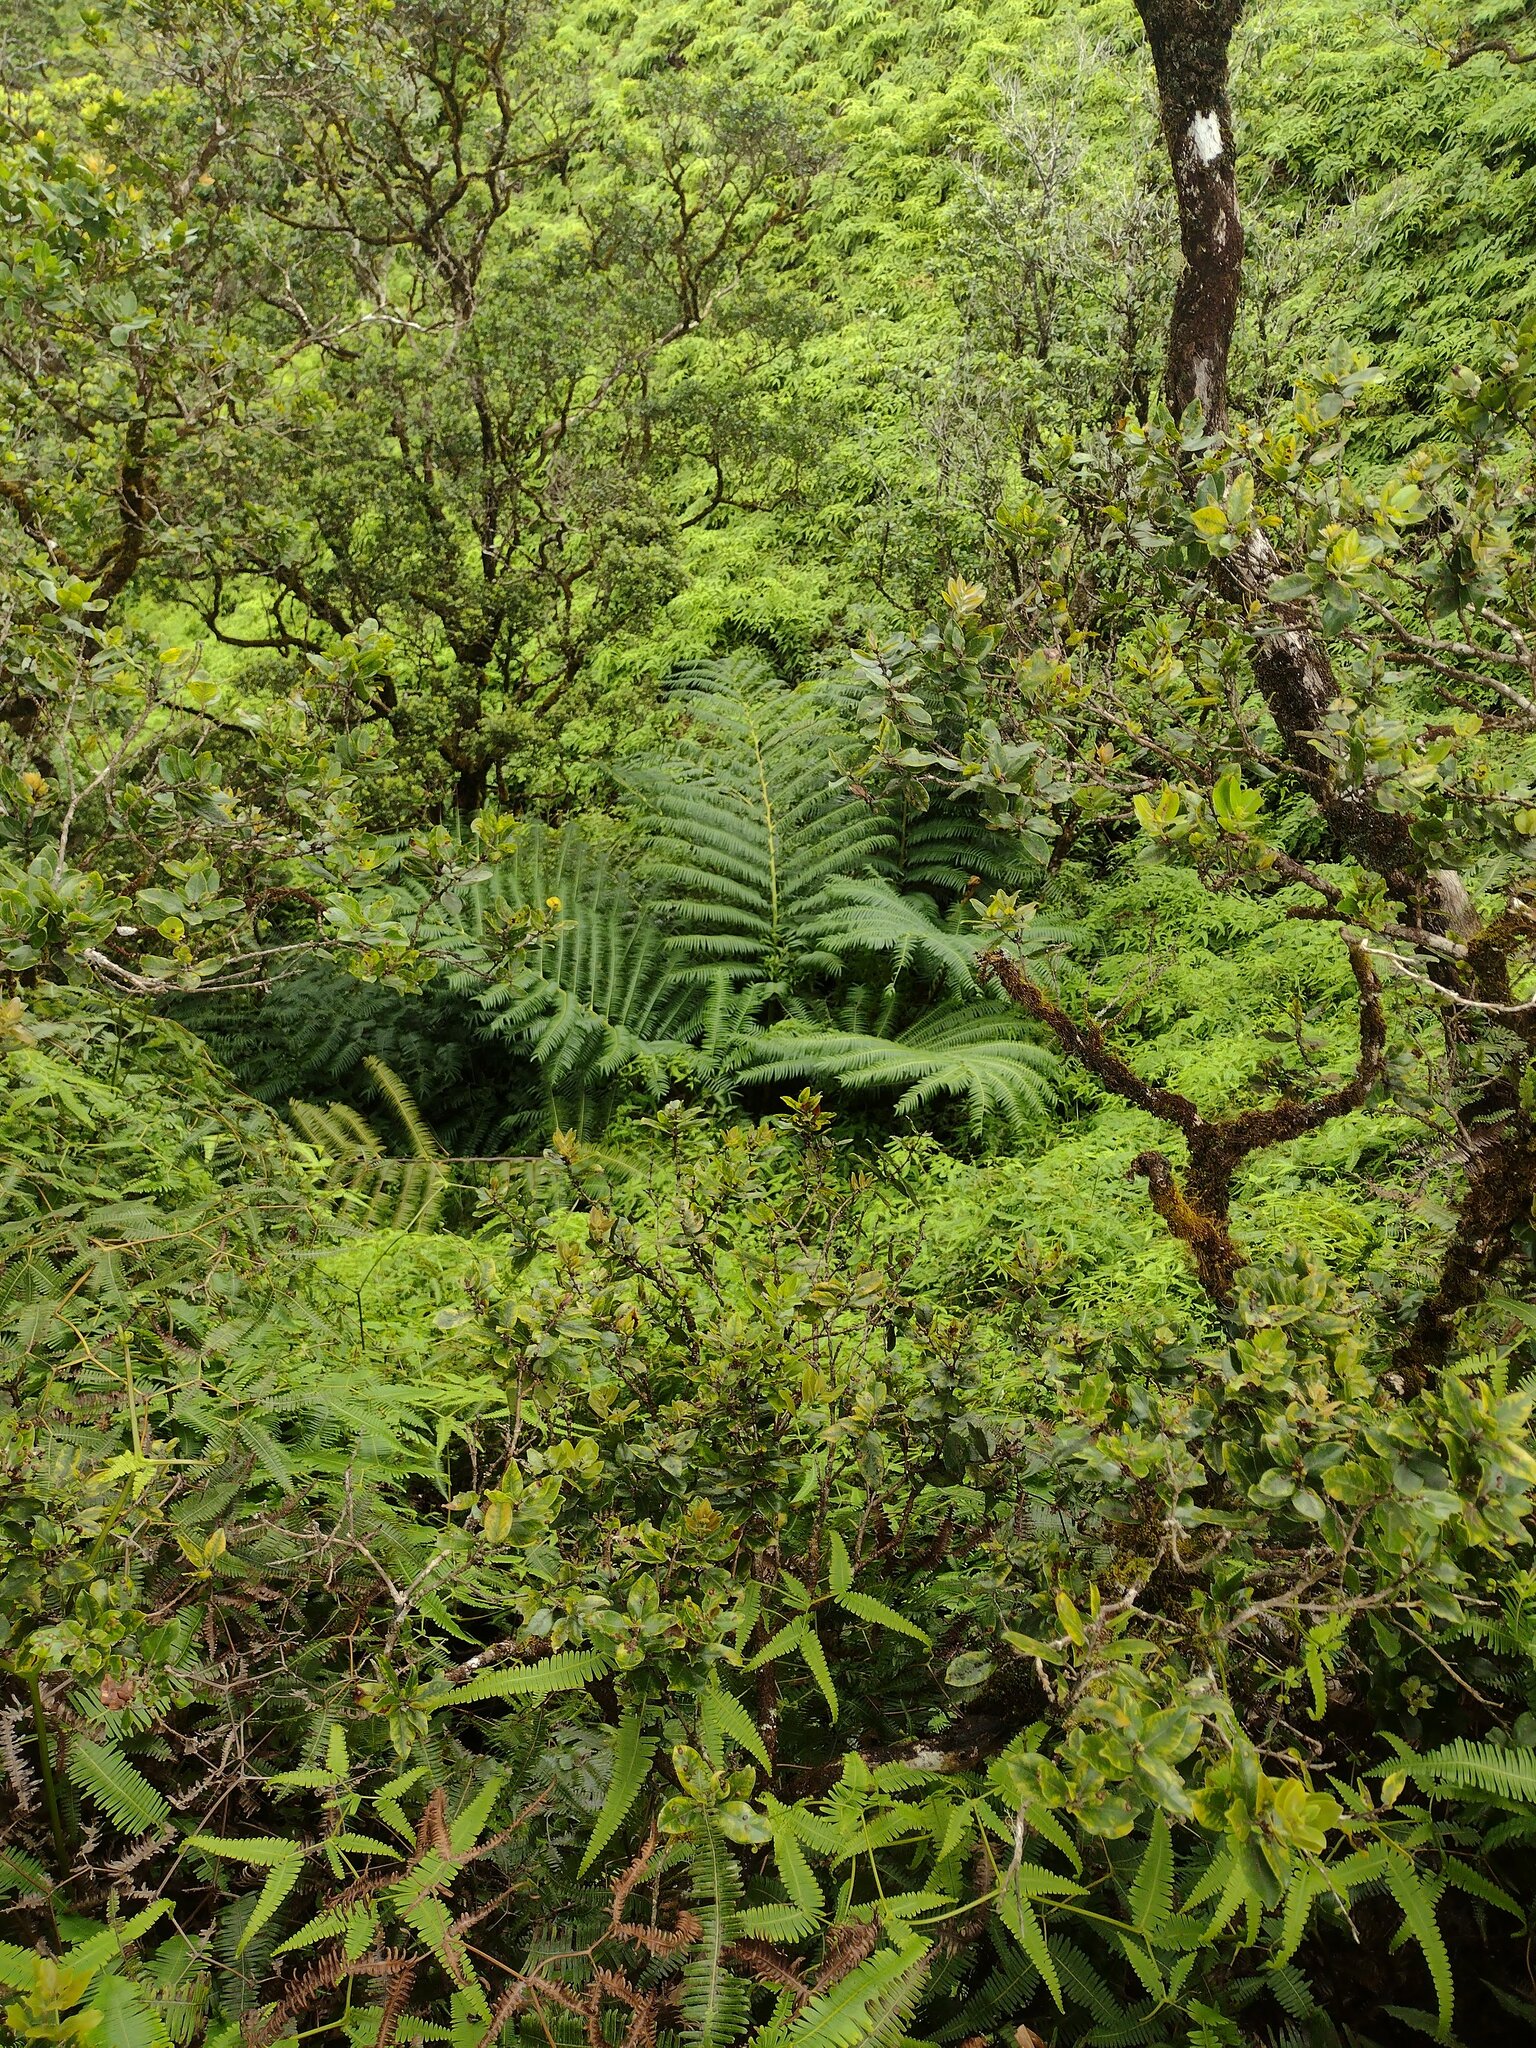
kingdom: Plantae
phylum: Tracheophyta
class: Polypodiopsida
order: Marattiales
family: Marattiaceae
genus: Angiopteris
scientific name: Angiopteris evecta
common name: Mule's-foot fern
